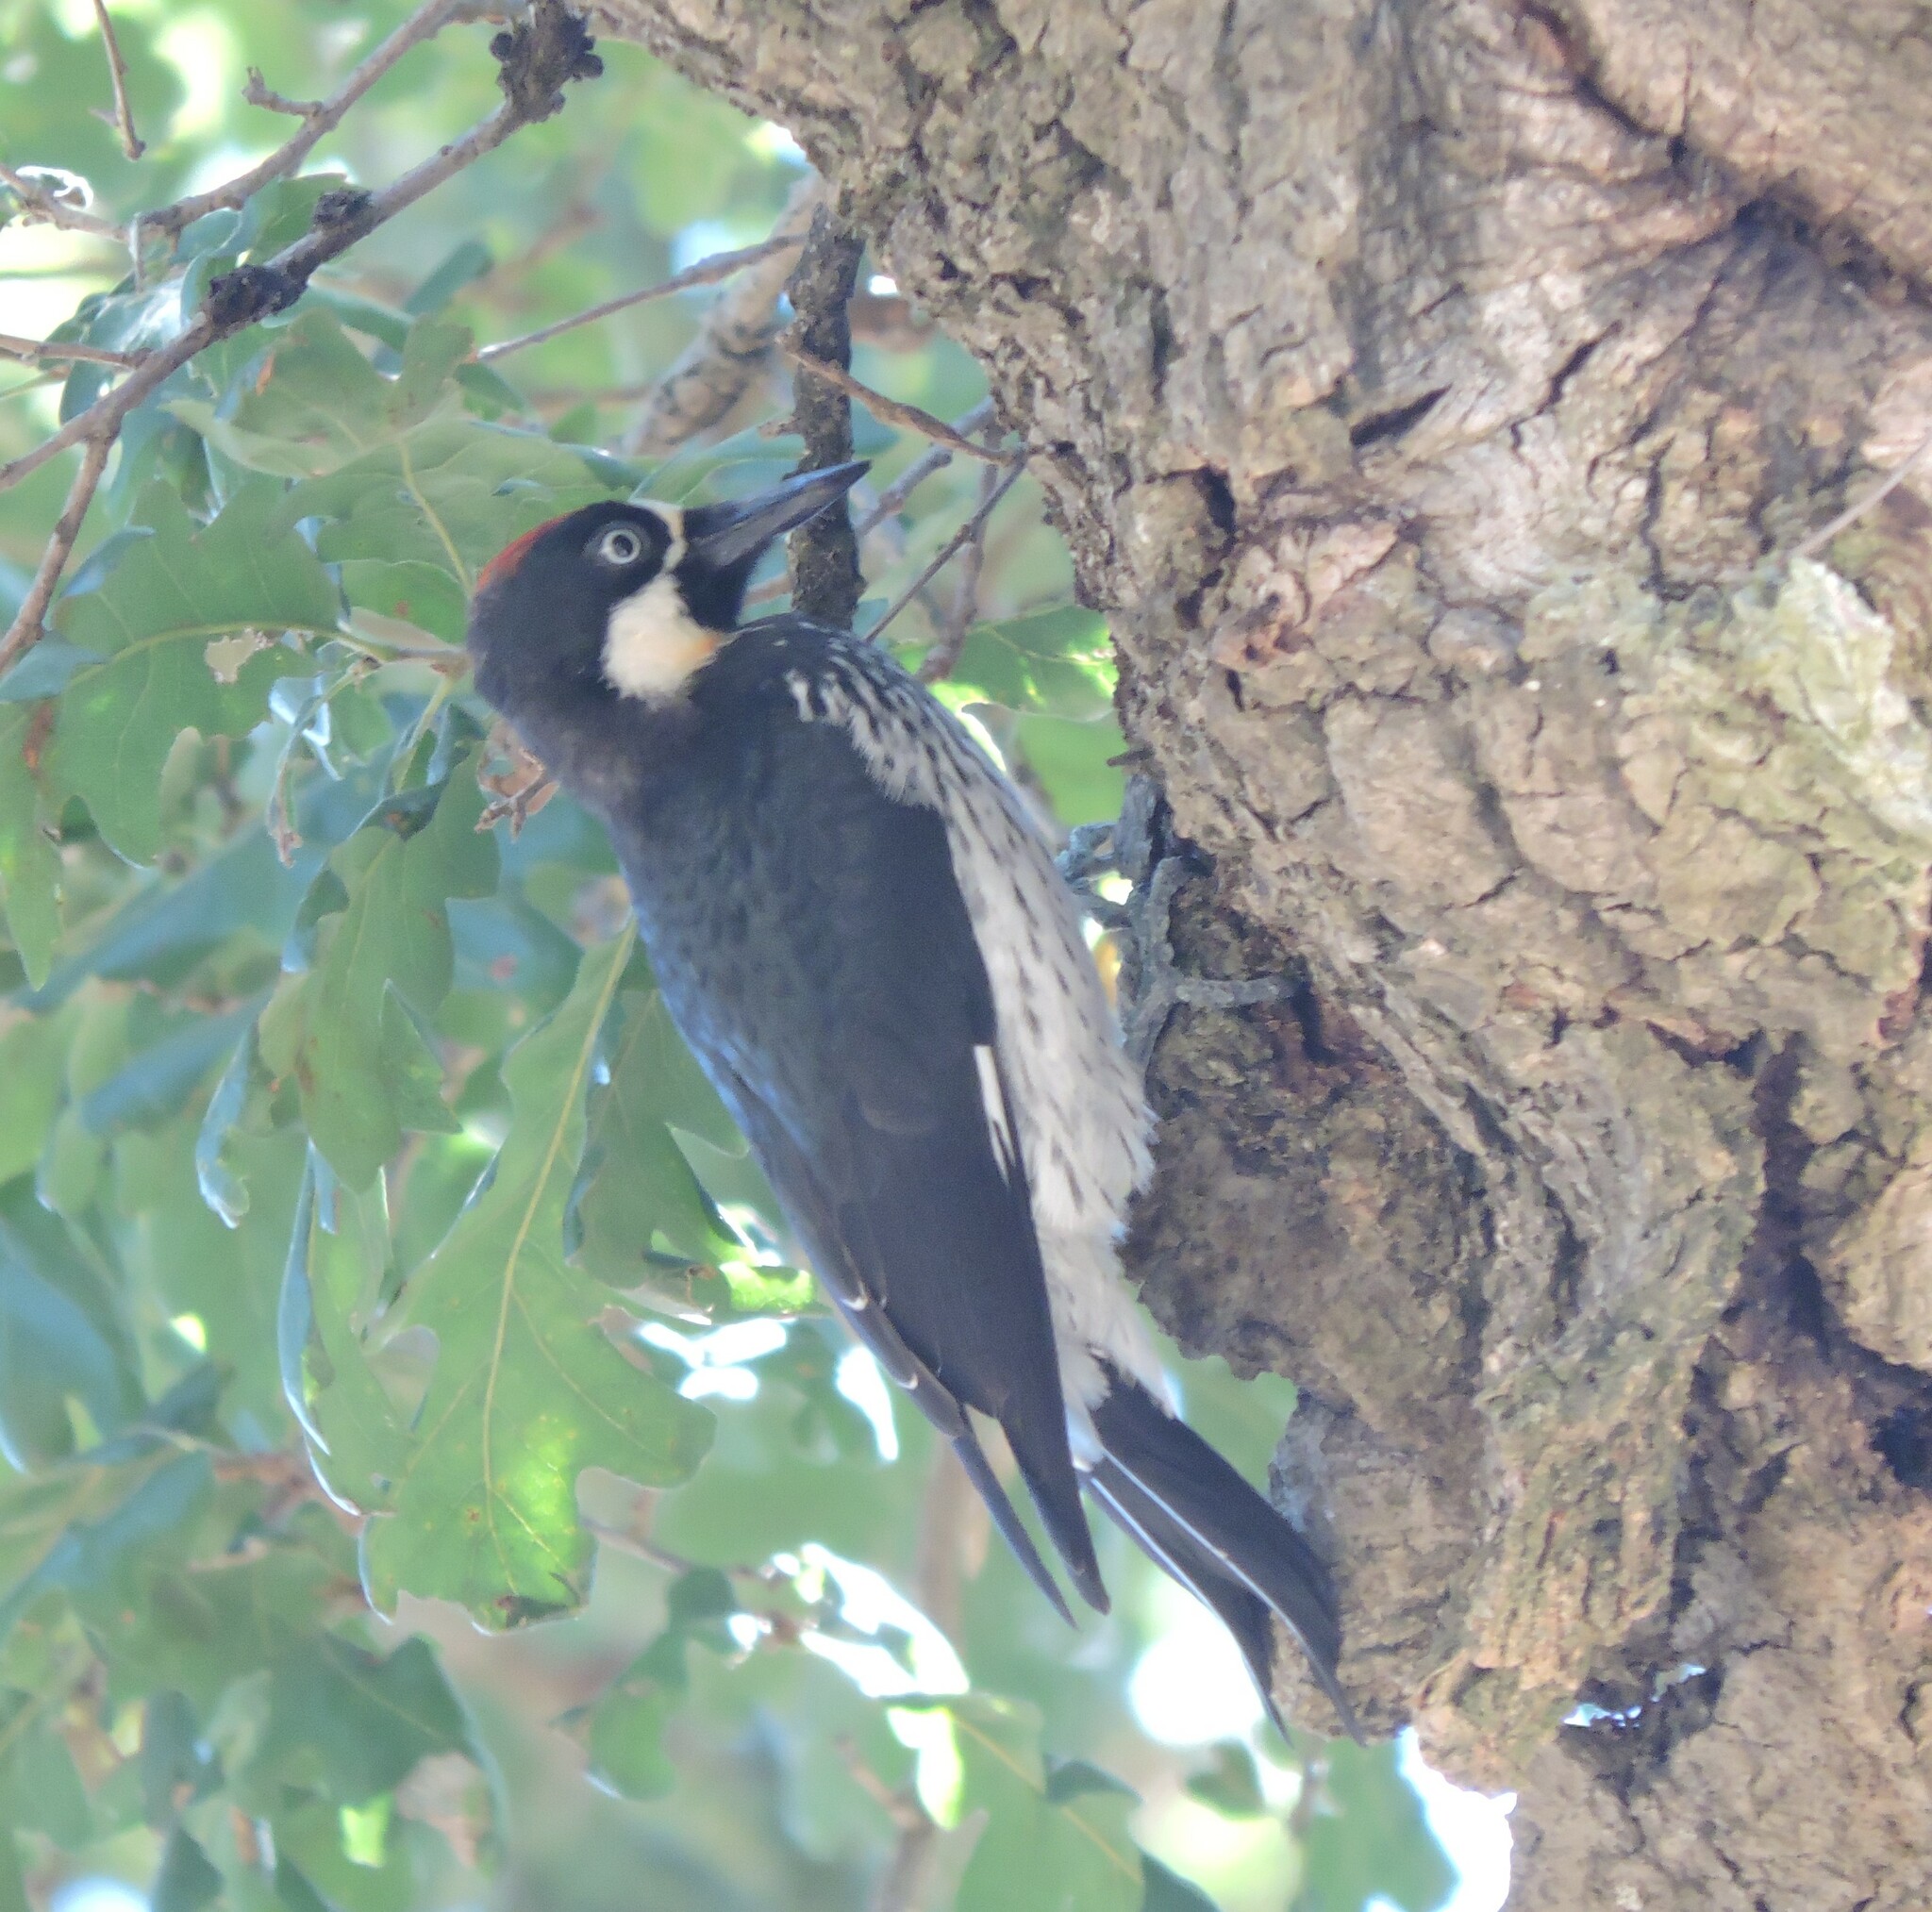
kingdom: Animalia
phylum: Chordata
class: Aves
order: Piciformes
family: Picidae
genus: Melanerpes
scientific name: Melanerpes formicivorus
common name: Acorn woodpecker
